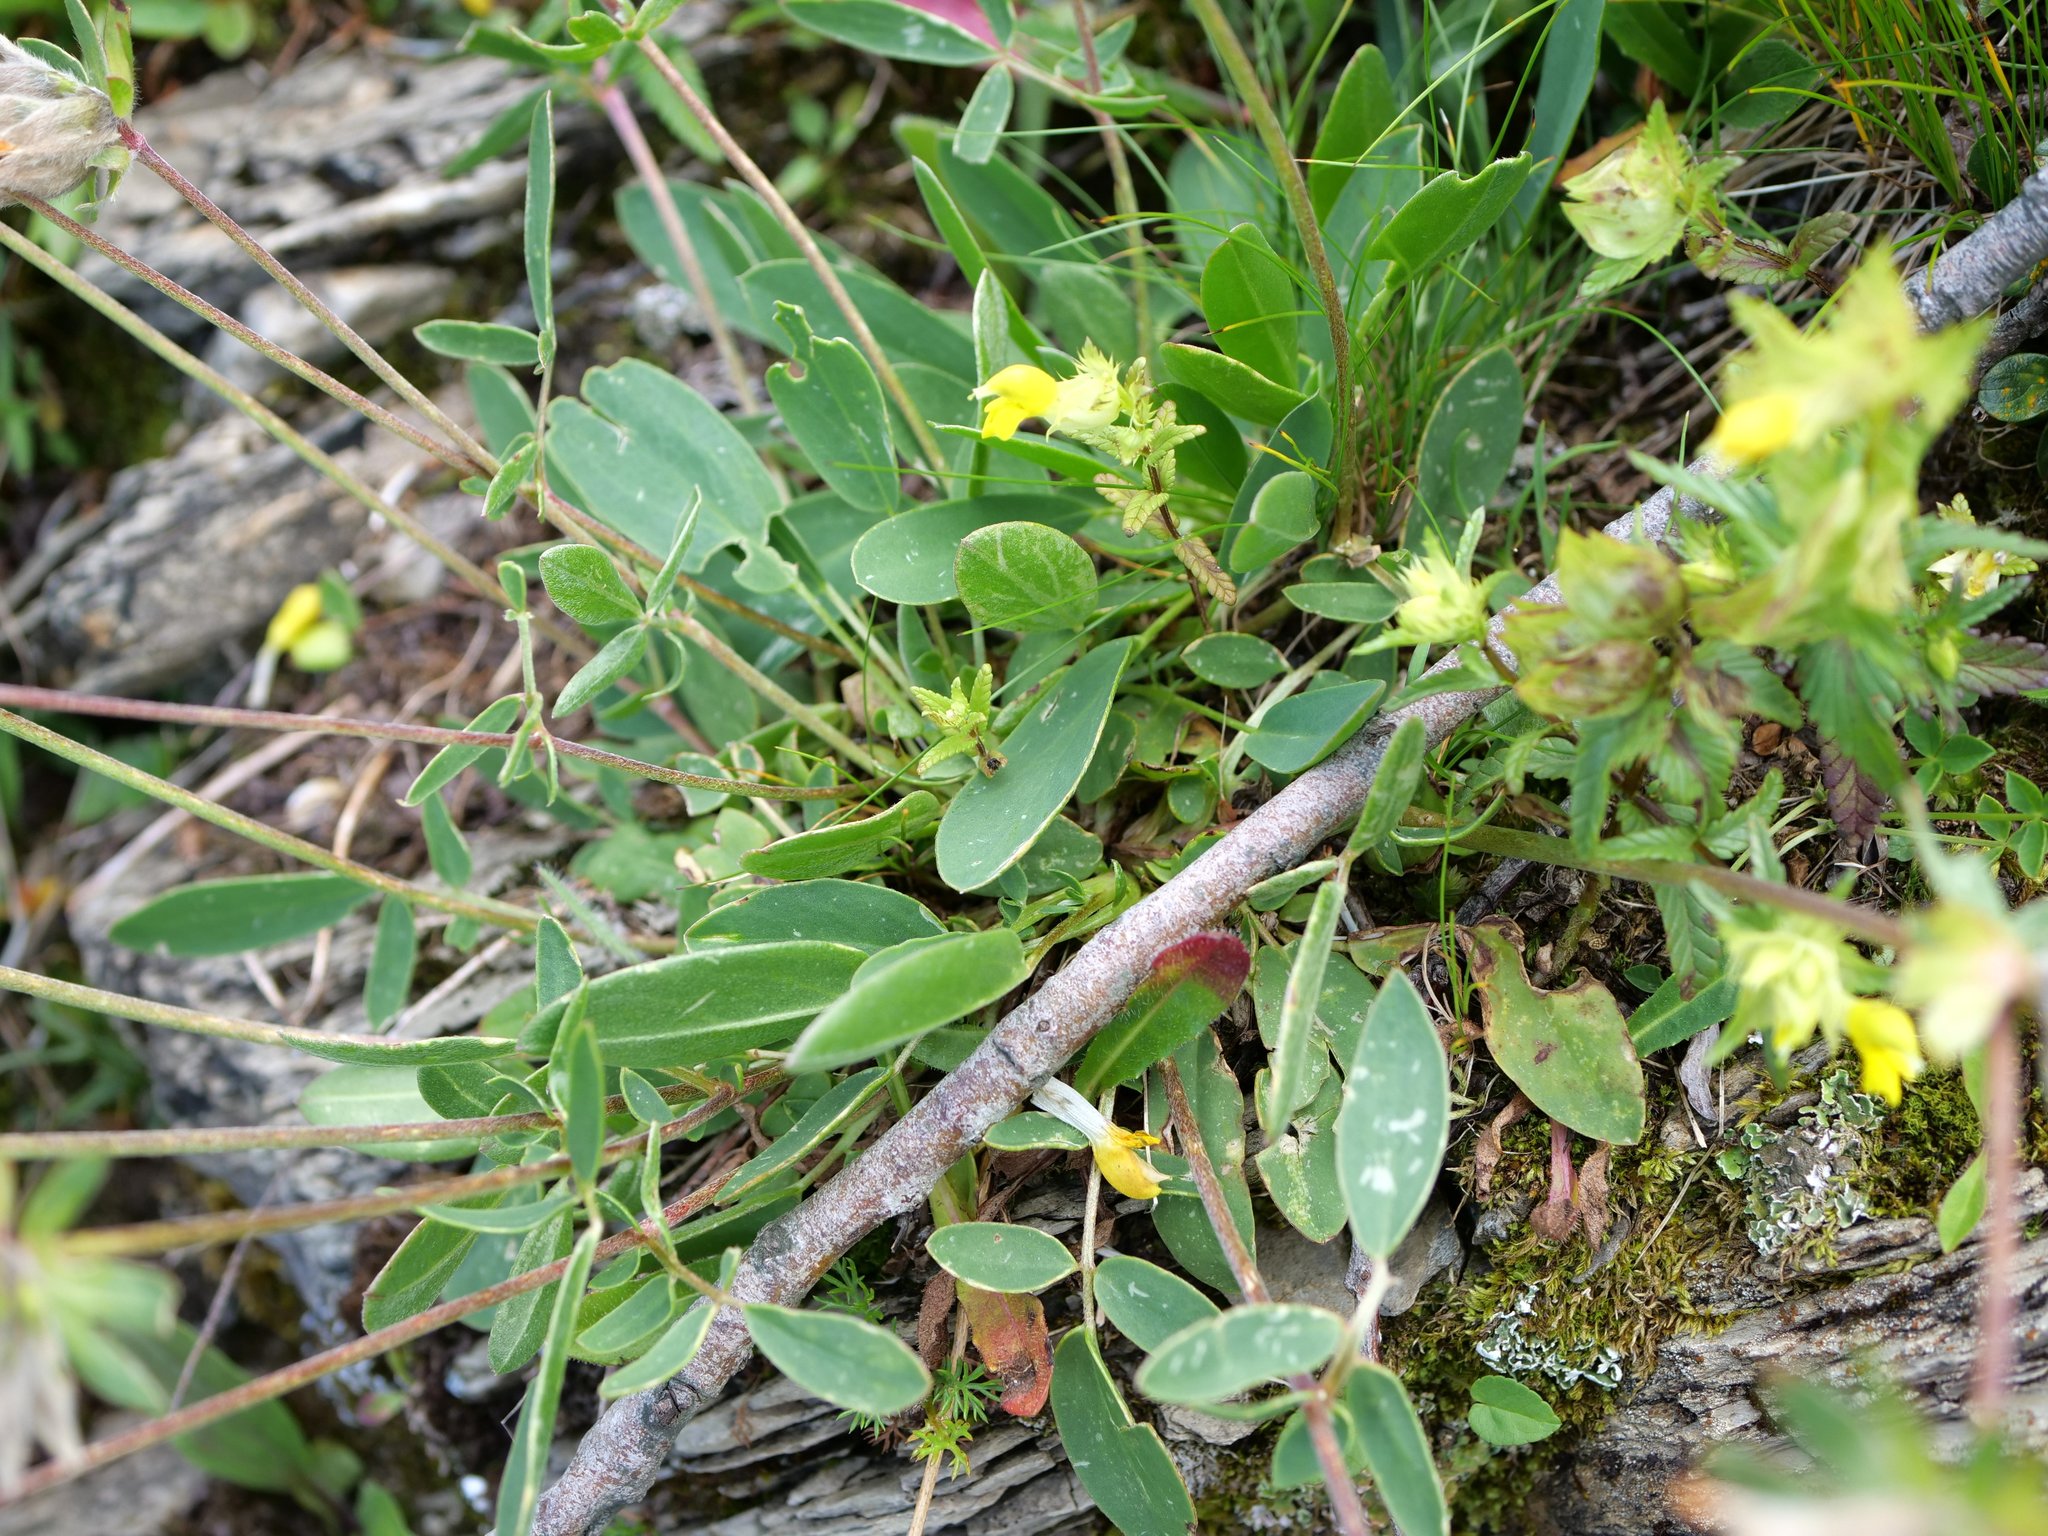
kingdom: Plantae
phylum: Tracheophyta
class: Magnoliopsida
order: Fabales
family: Fabaceae
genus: Anthyllis
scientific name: Anthyllis vulneraria
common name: Kidney vetch
